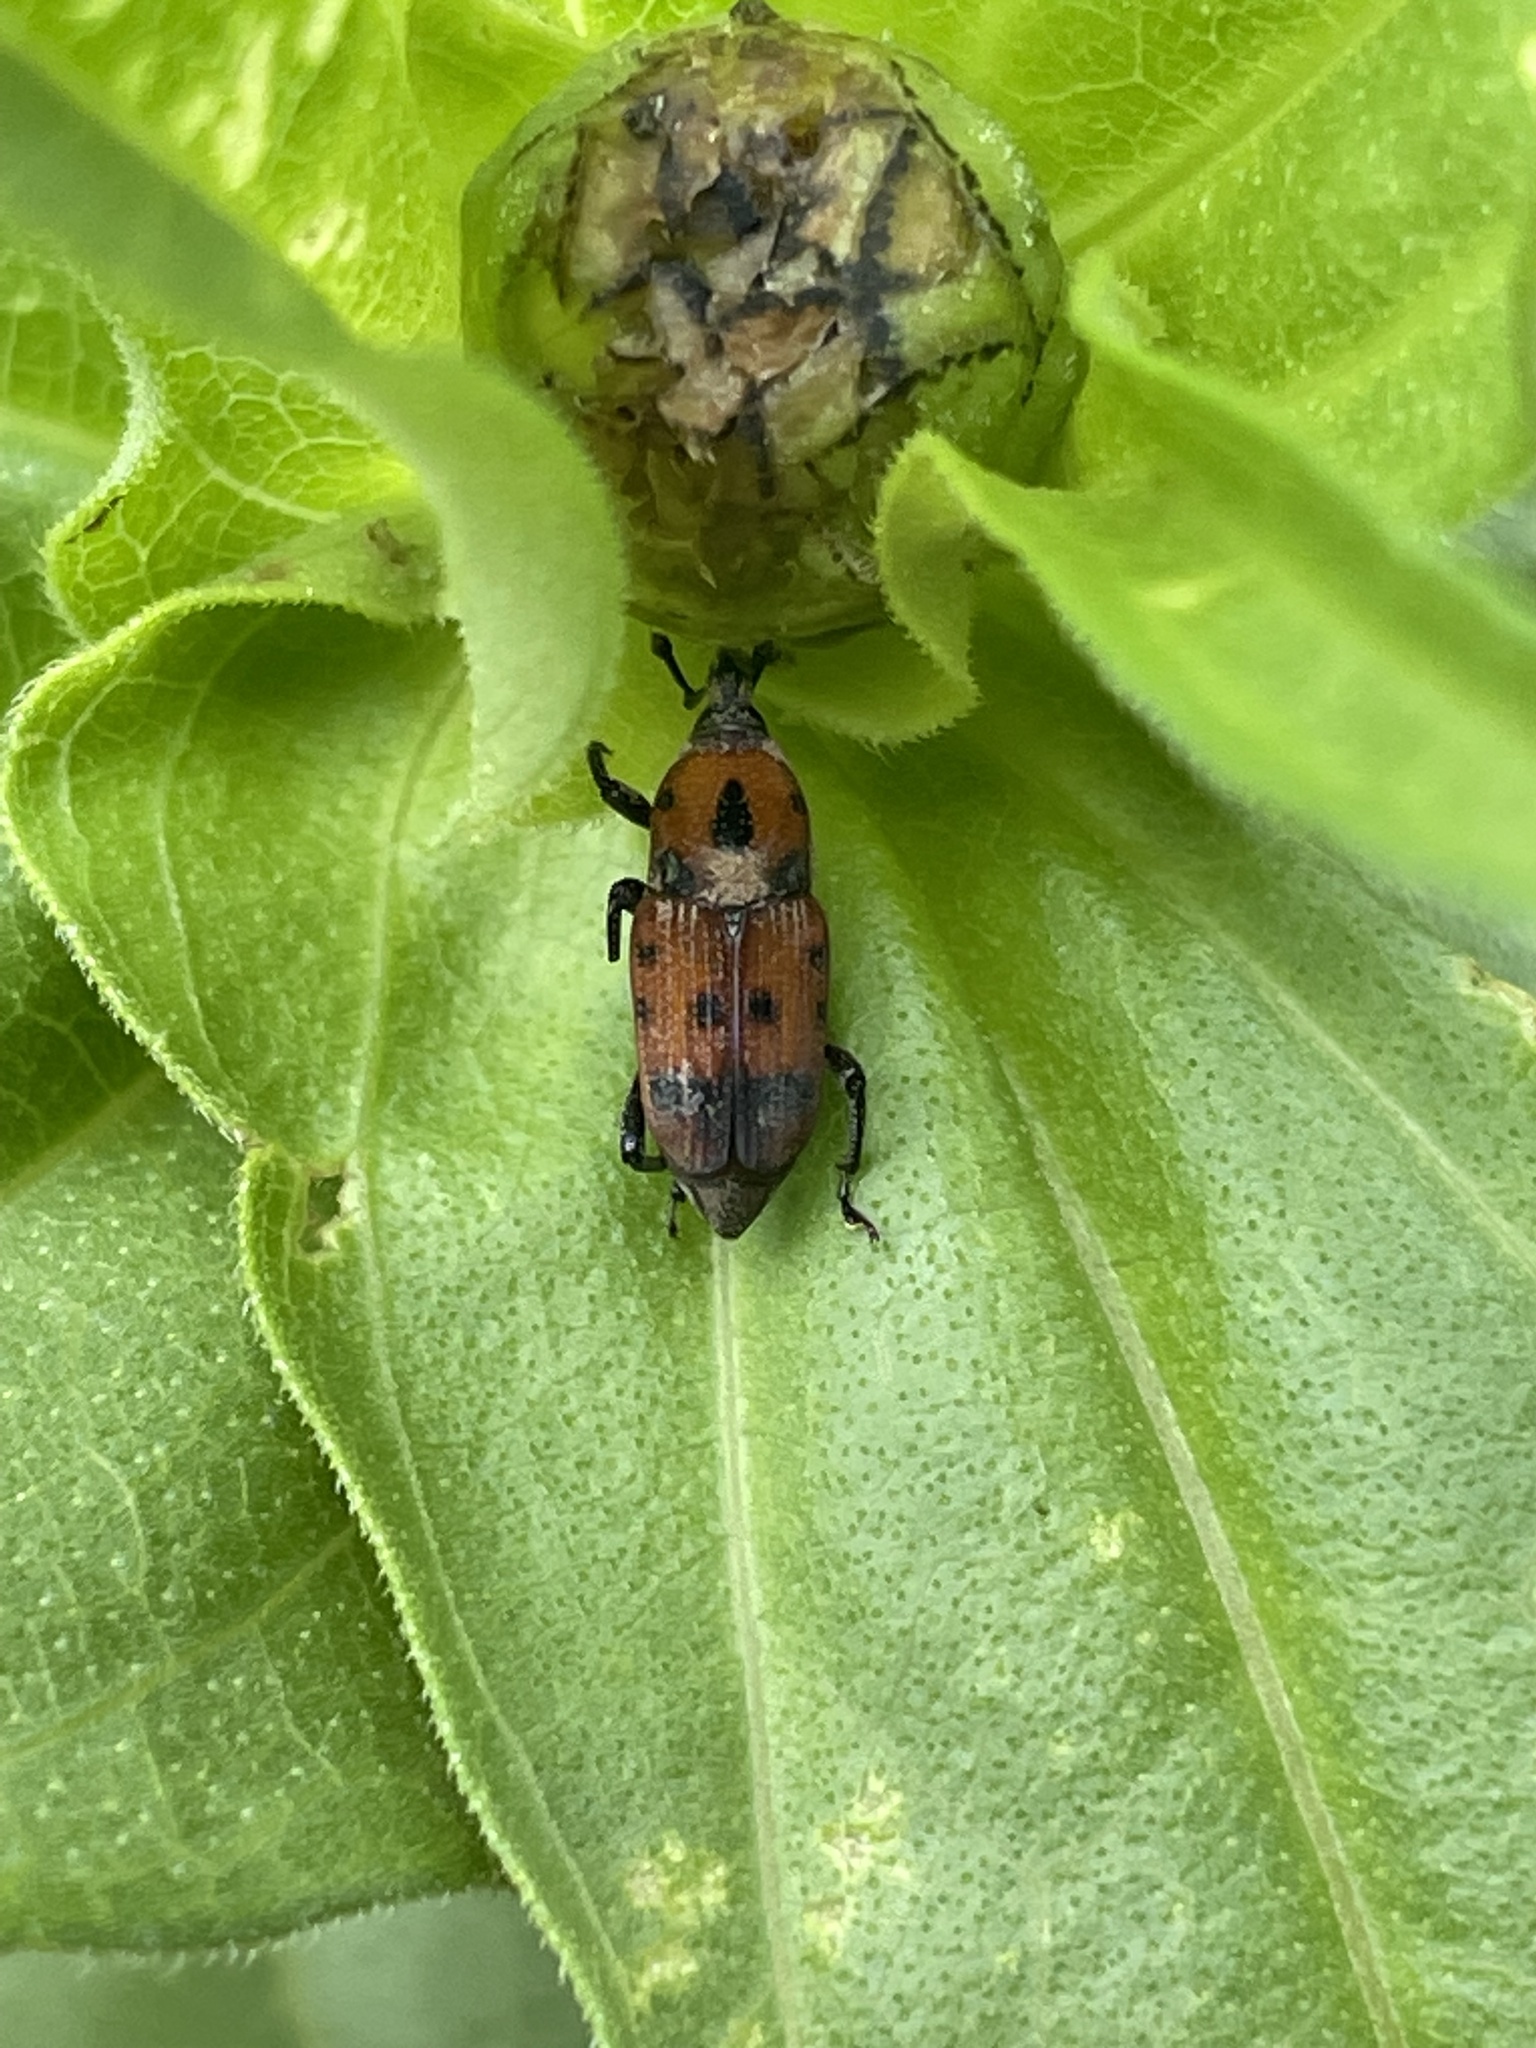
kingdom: Animalia
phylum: Arthropoda
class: Insecta
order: Coleoptera
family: Dryophthoridae
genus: Rhodobaenus
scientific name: Rhodobaenus quinquepunctatus
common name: Cocklebur weevil
